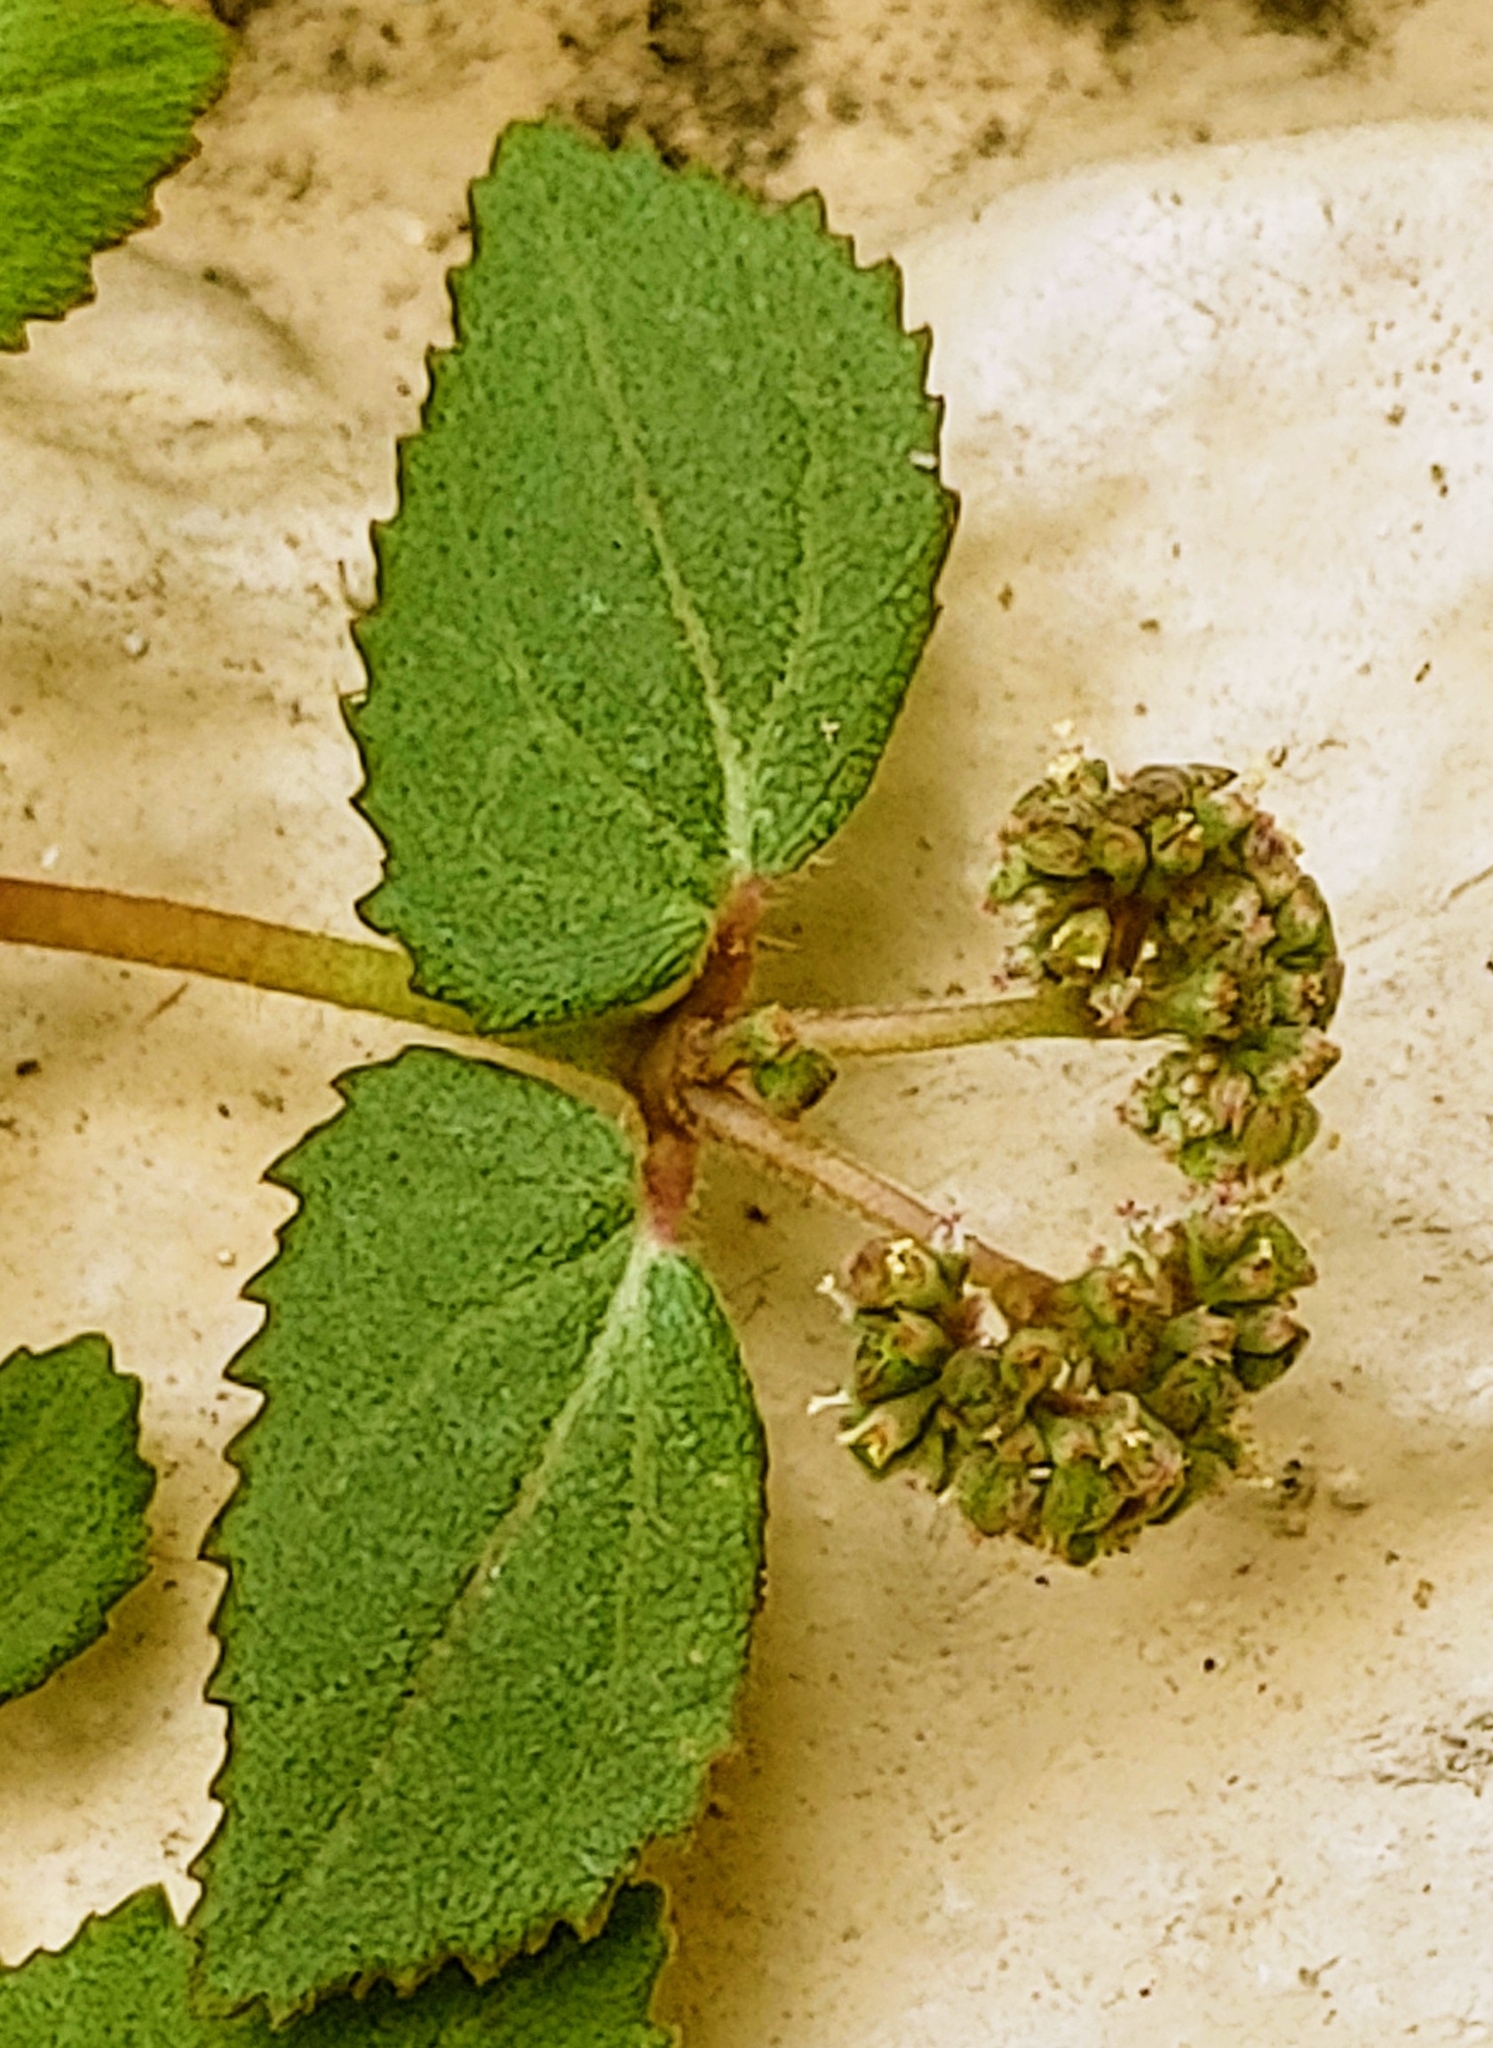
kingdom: Plantae
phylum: Tracheophyta
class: Magnoliopsida
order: Malpighiales
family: Euphorbiaceae
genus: Euphorbia
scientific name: Euphorbia ophthalmica
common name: Florida hammock sandmat
